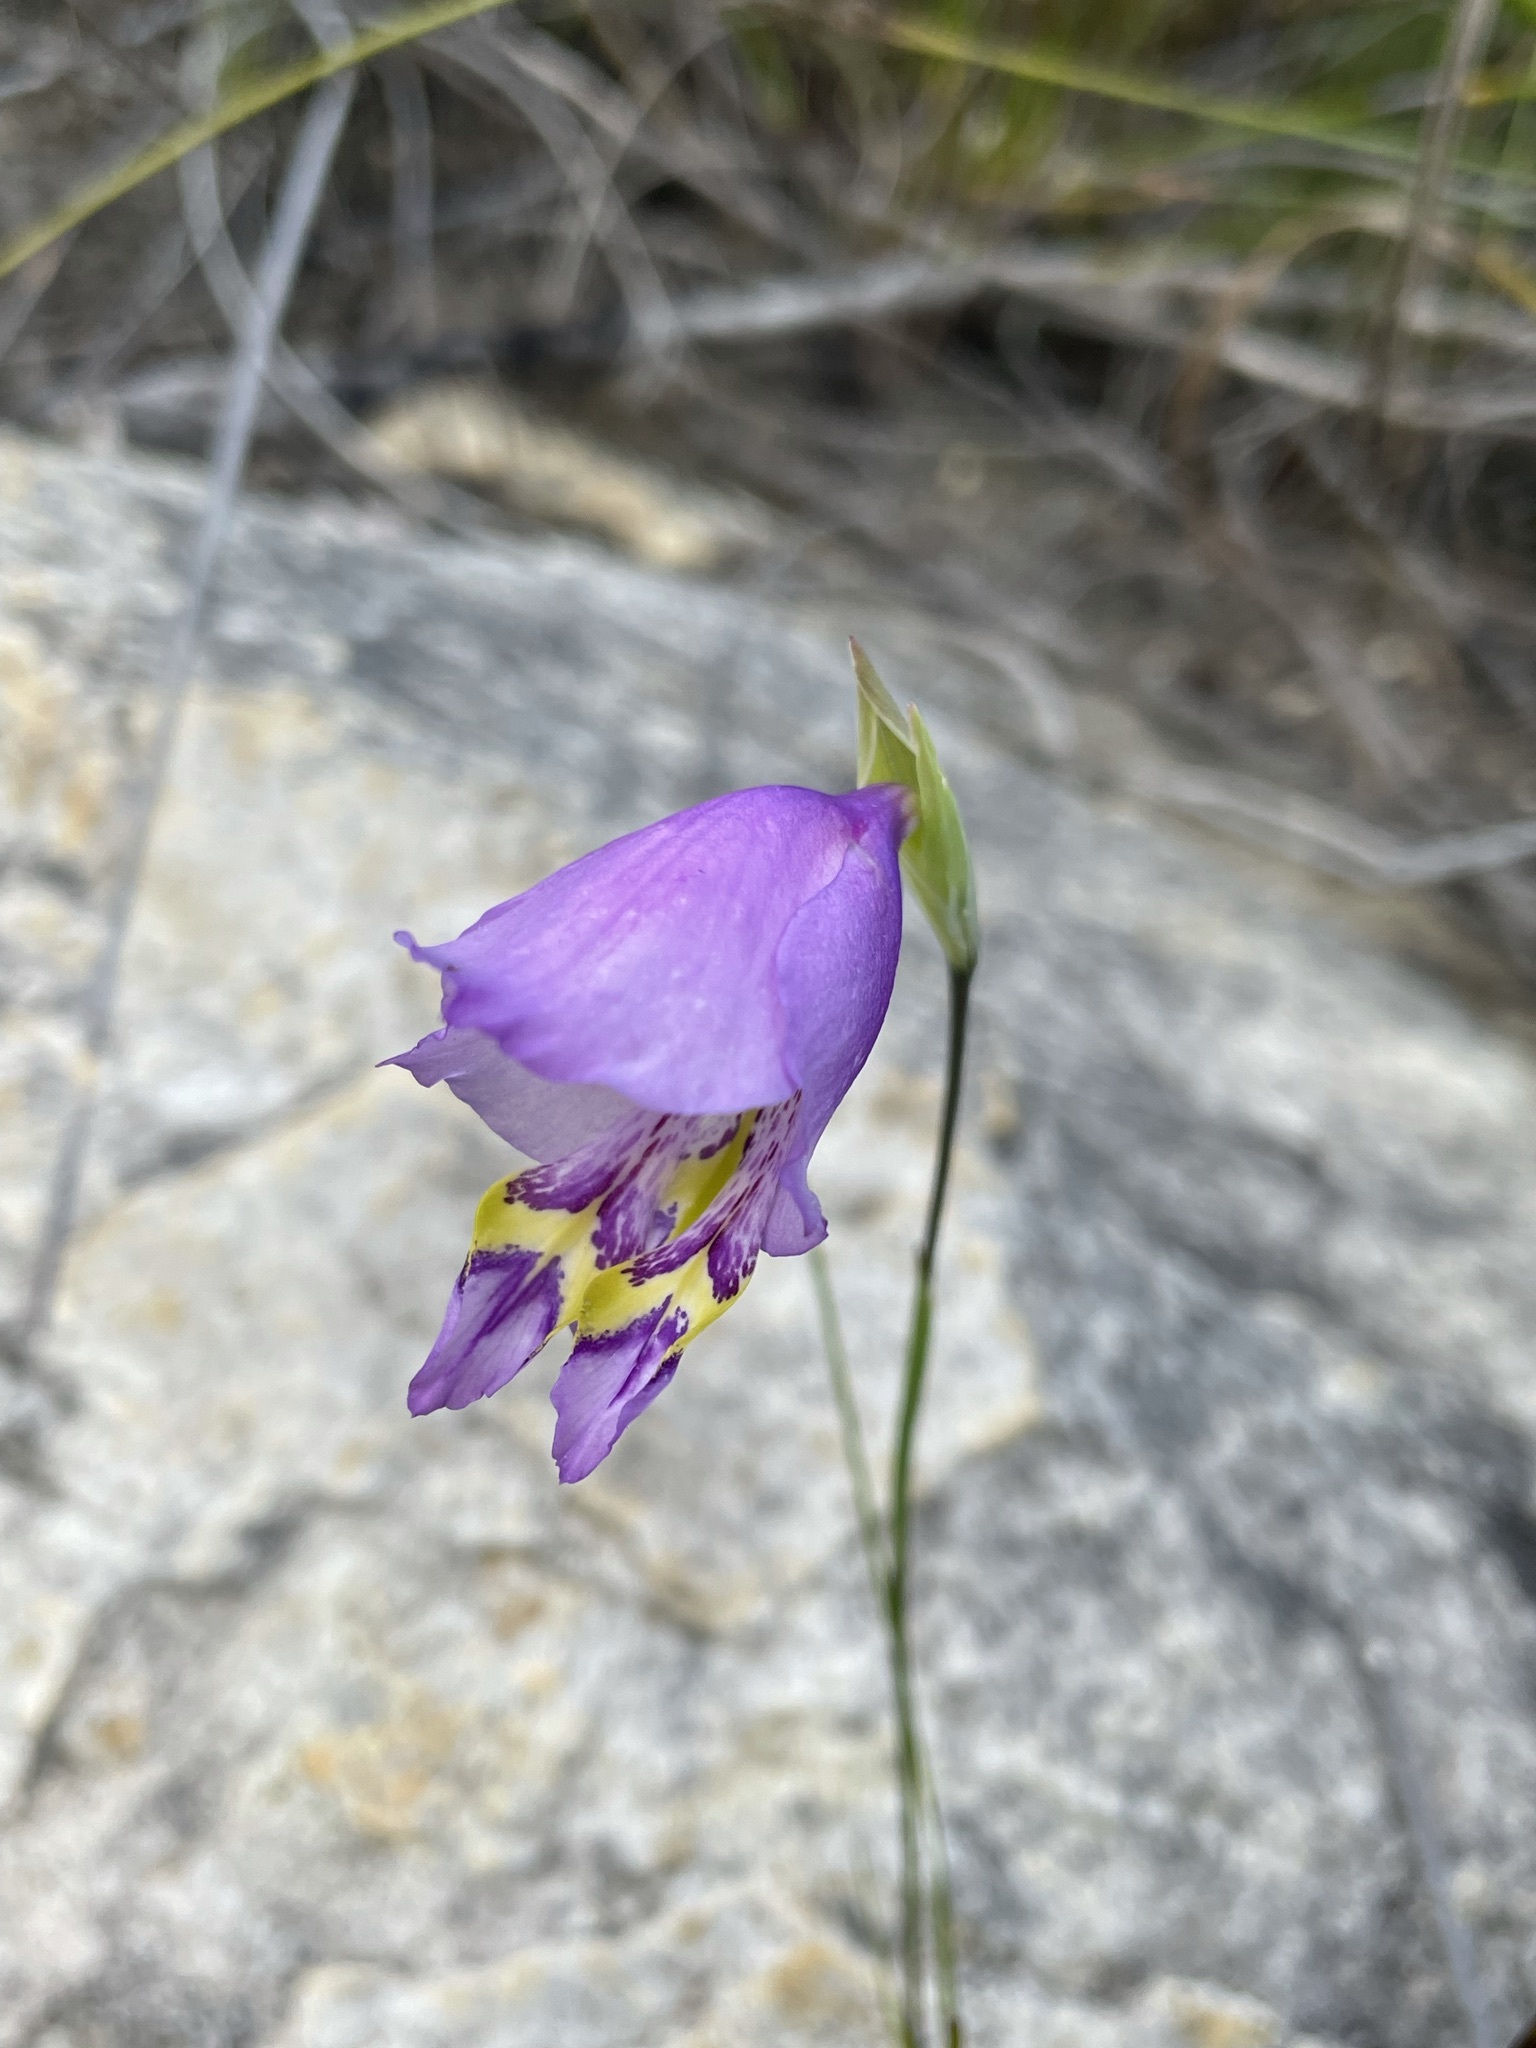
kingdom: Plantae
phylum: Tracheophyta
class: Liliopsida
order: Asparagales
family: Iridaceae
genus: Gladiolus
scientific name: Gladiolus rogersii
